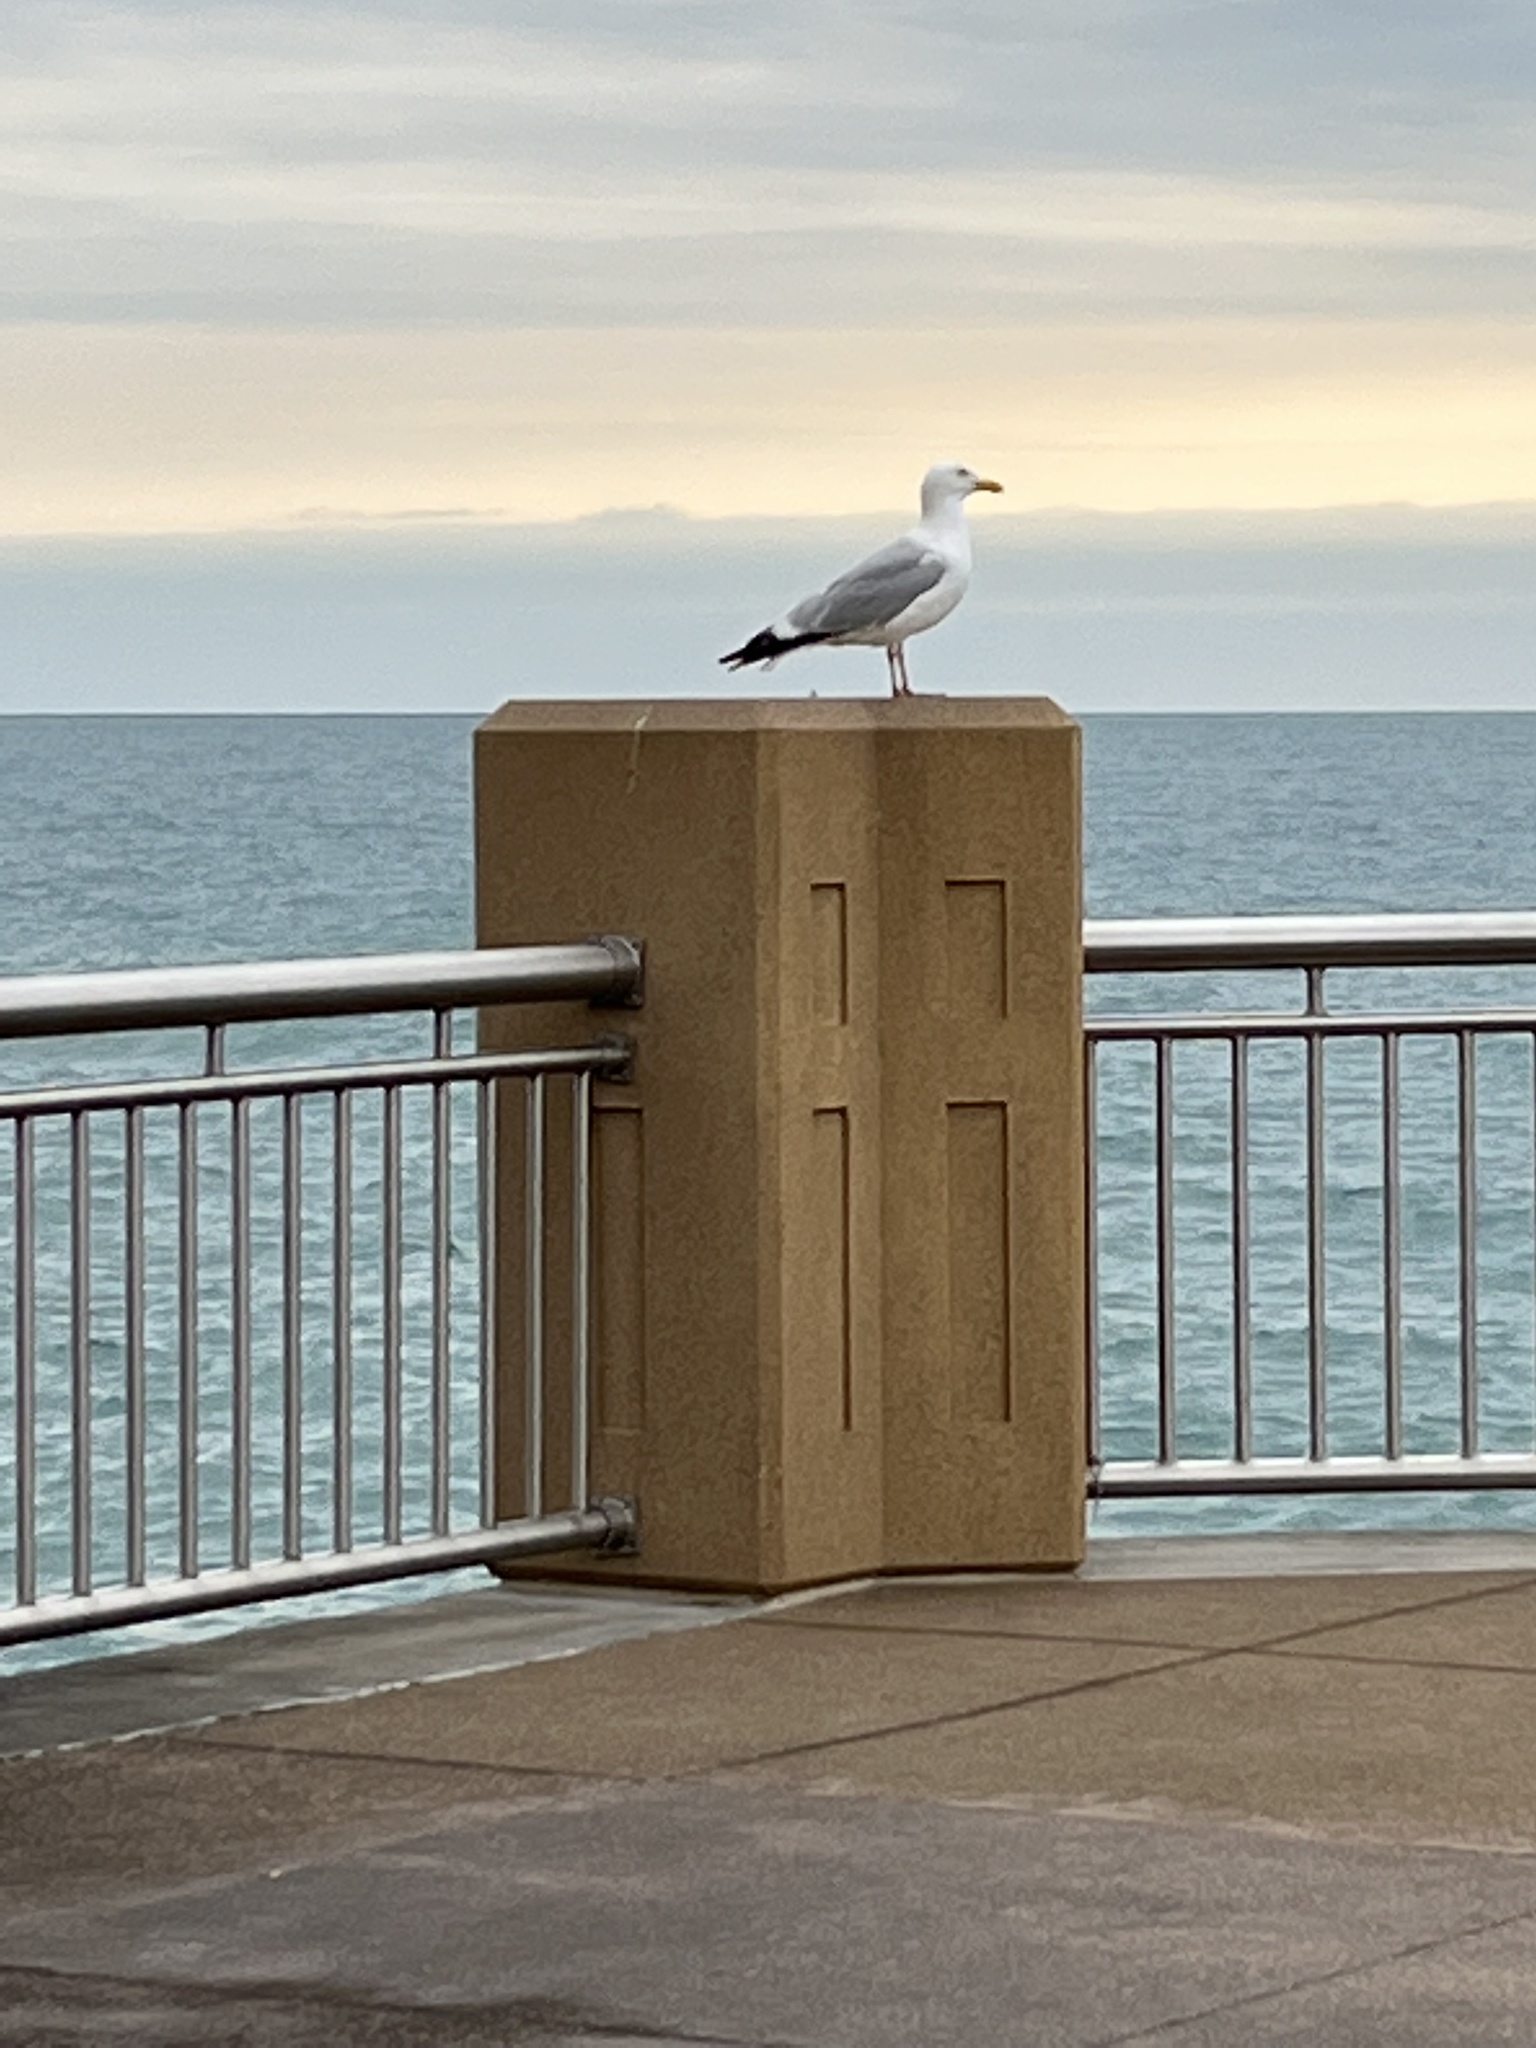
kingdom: Animalia
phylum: Chordata
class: Aves
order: Charadriiformes
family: Laridae
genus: Larus
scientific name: Larus argentatus
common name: Herring gull
